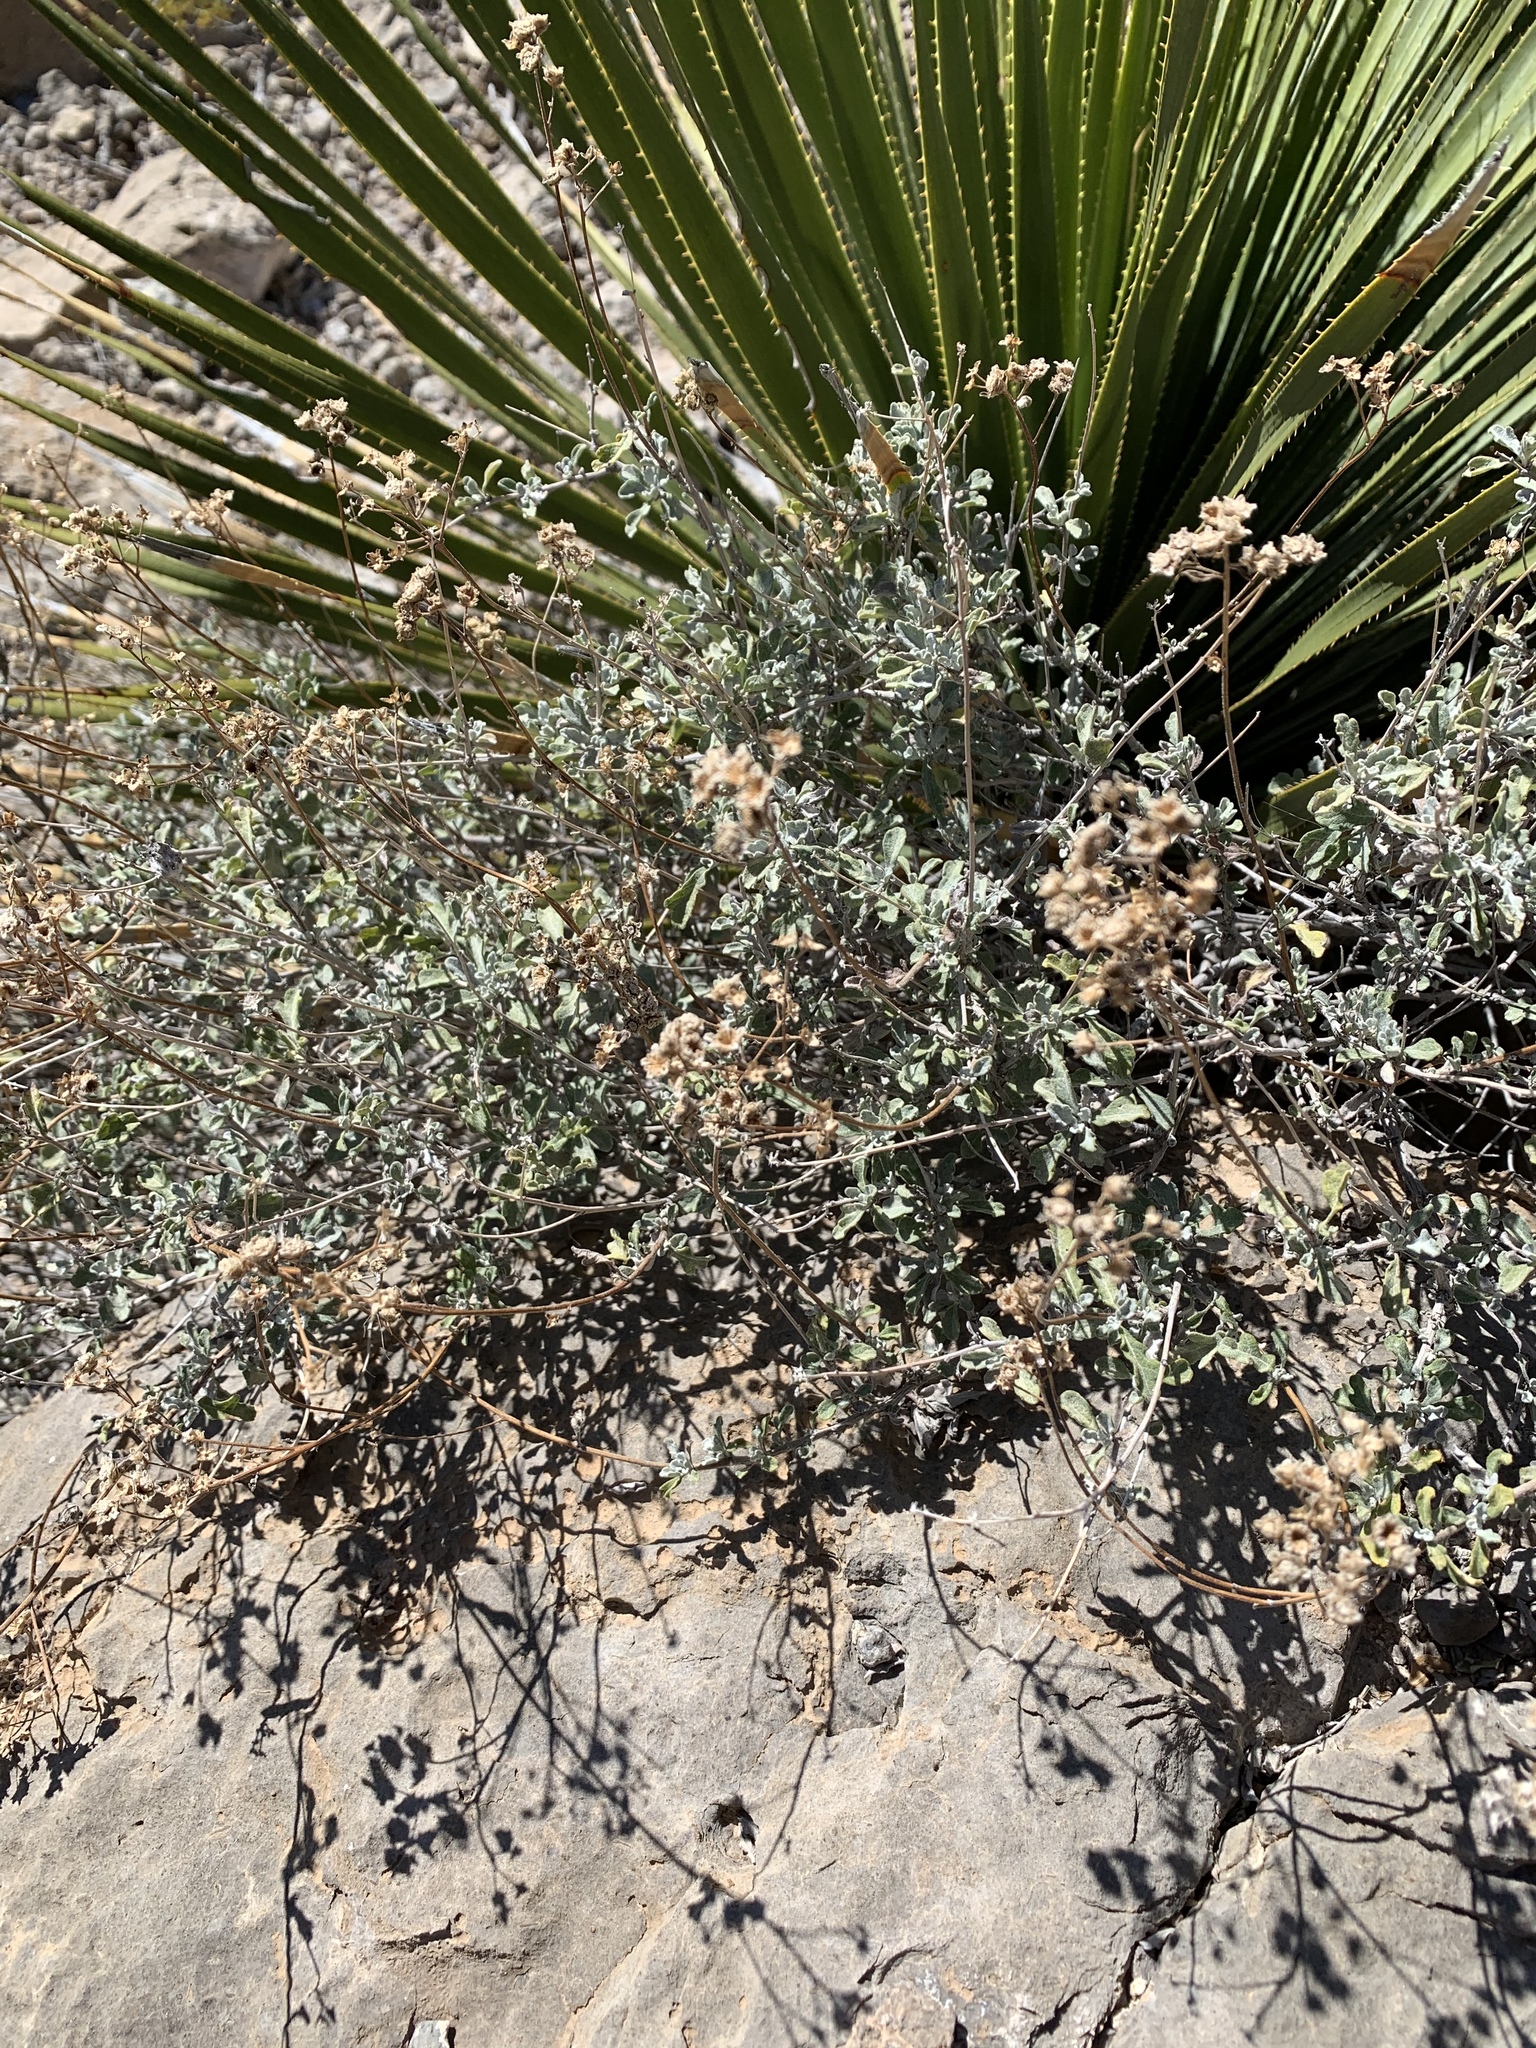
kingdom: Plantae
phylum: Tracheophyta
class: Magnoliopsida
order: Asterales
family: Asteraceae
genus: Parthenium
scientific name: Parthenium incanum
